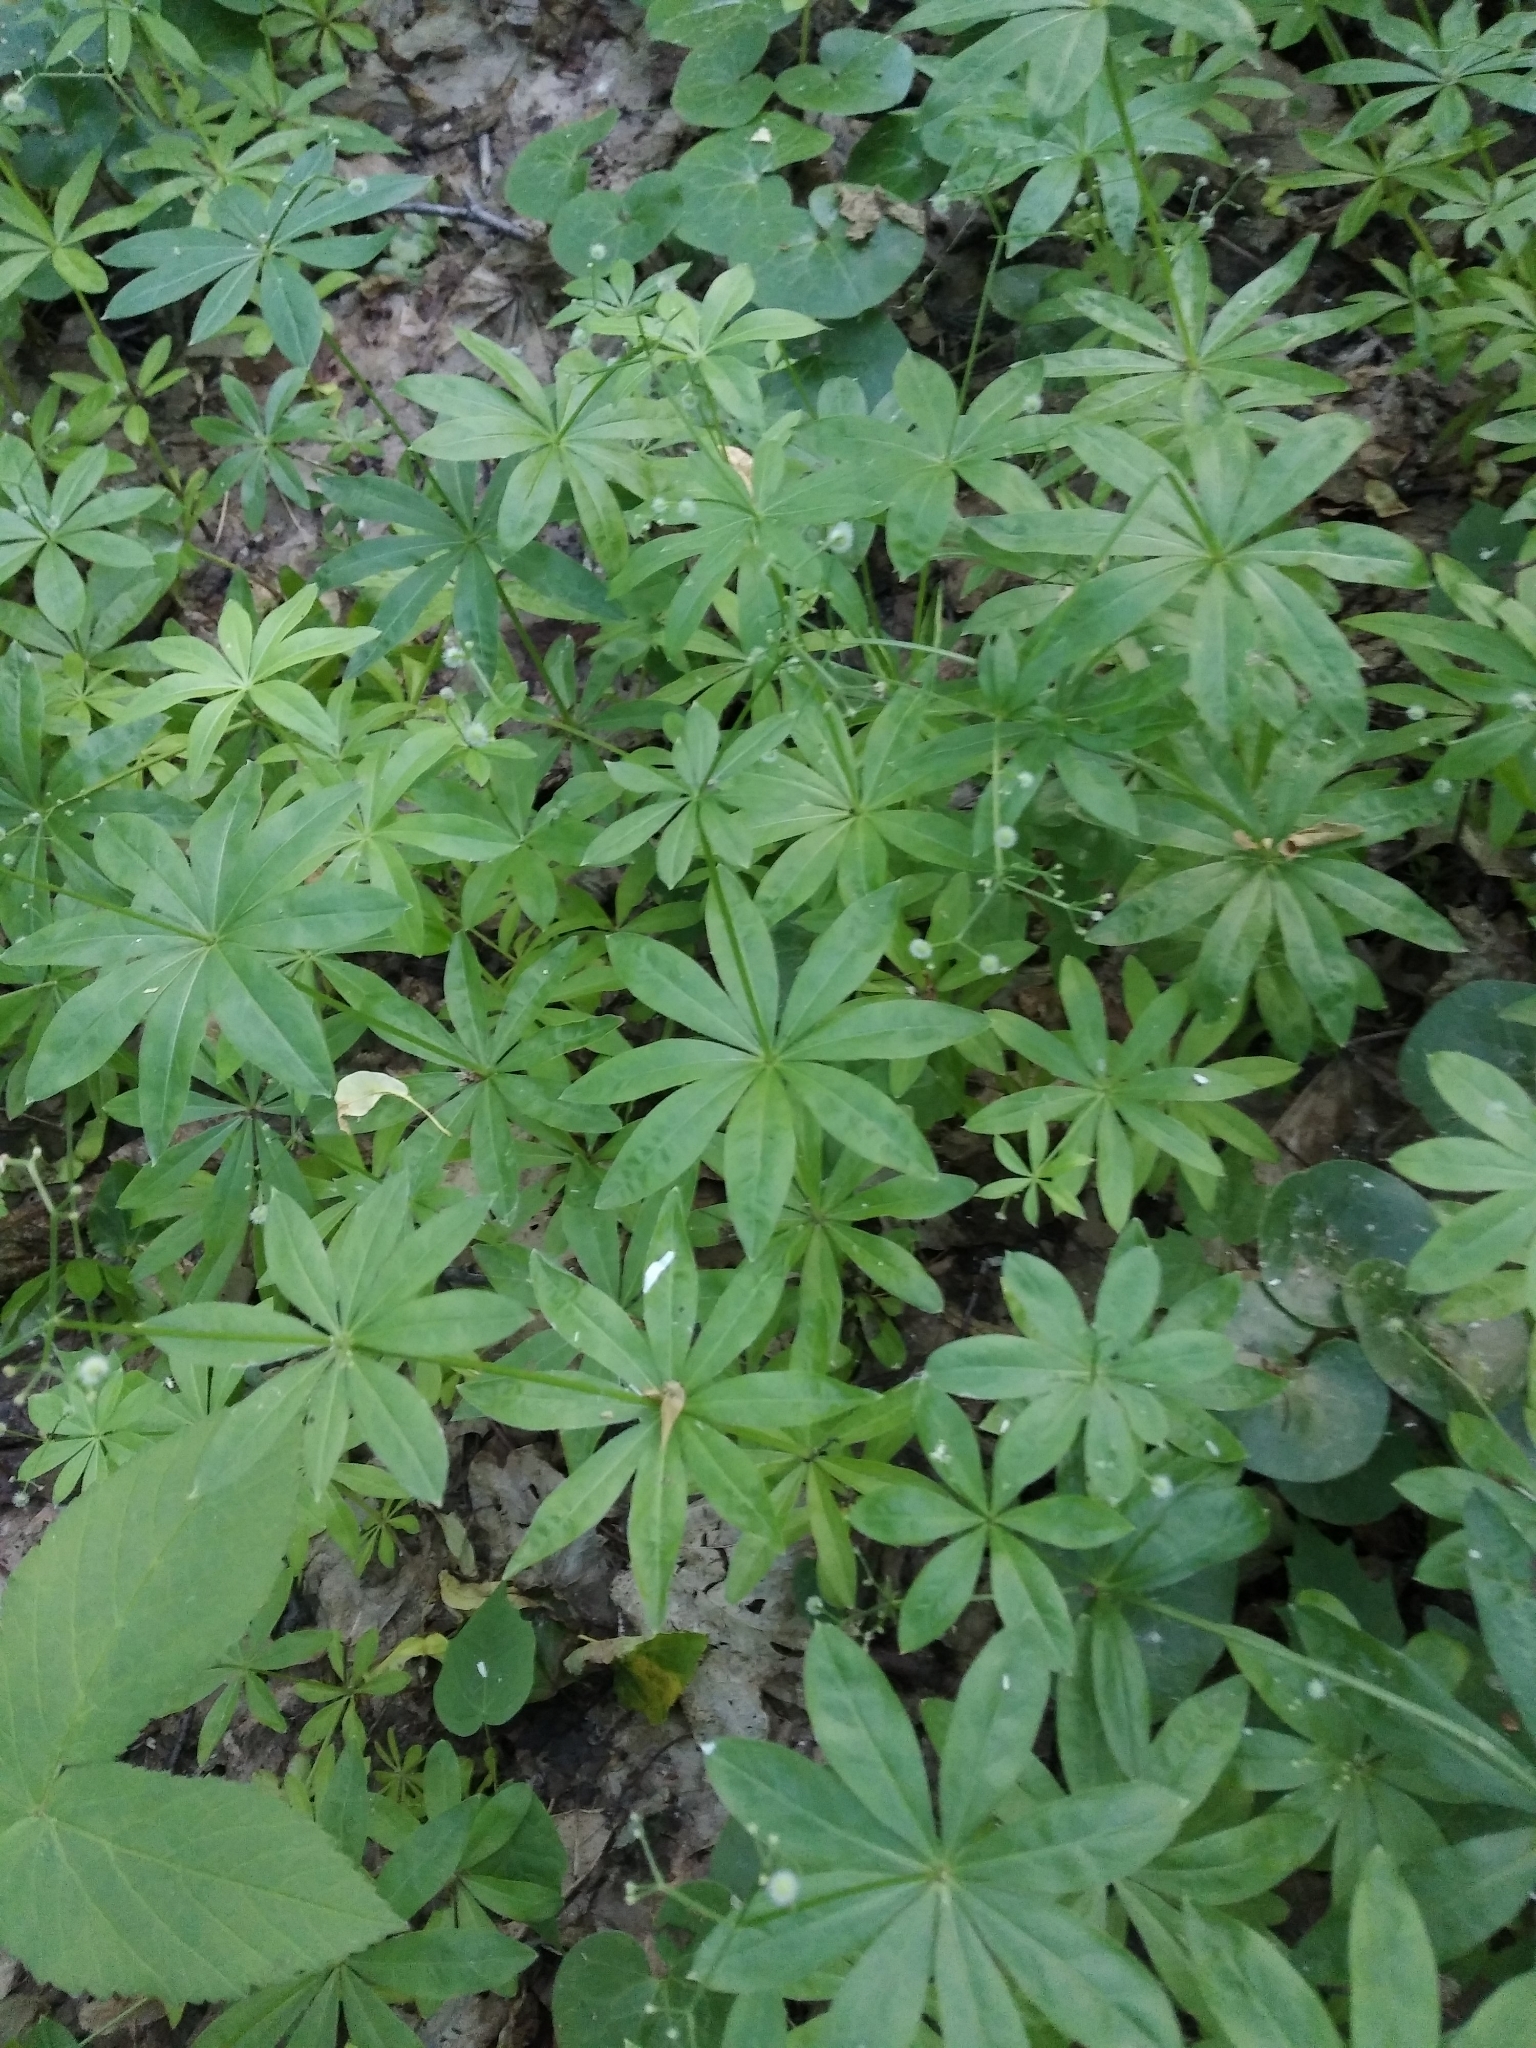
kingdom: Plantae
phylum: Tracheophyta
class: Magnoliopsida
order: Gentianales
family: Rubiaceae
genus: Galium
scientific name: Galium odoratum
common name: Sweet woodruff
